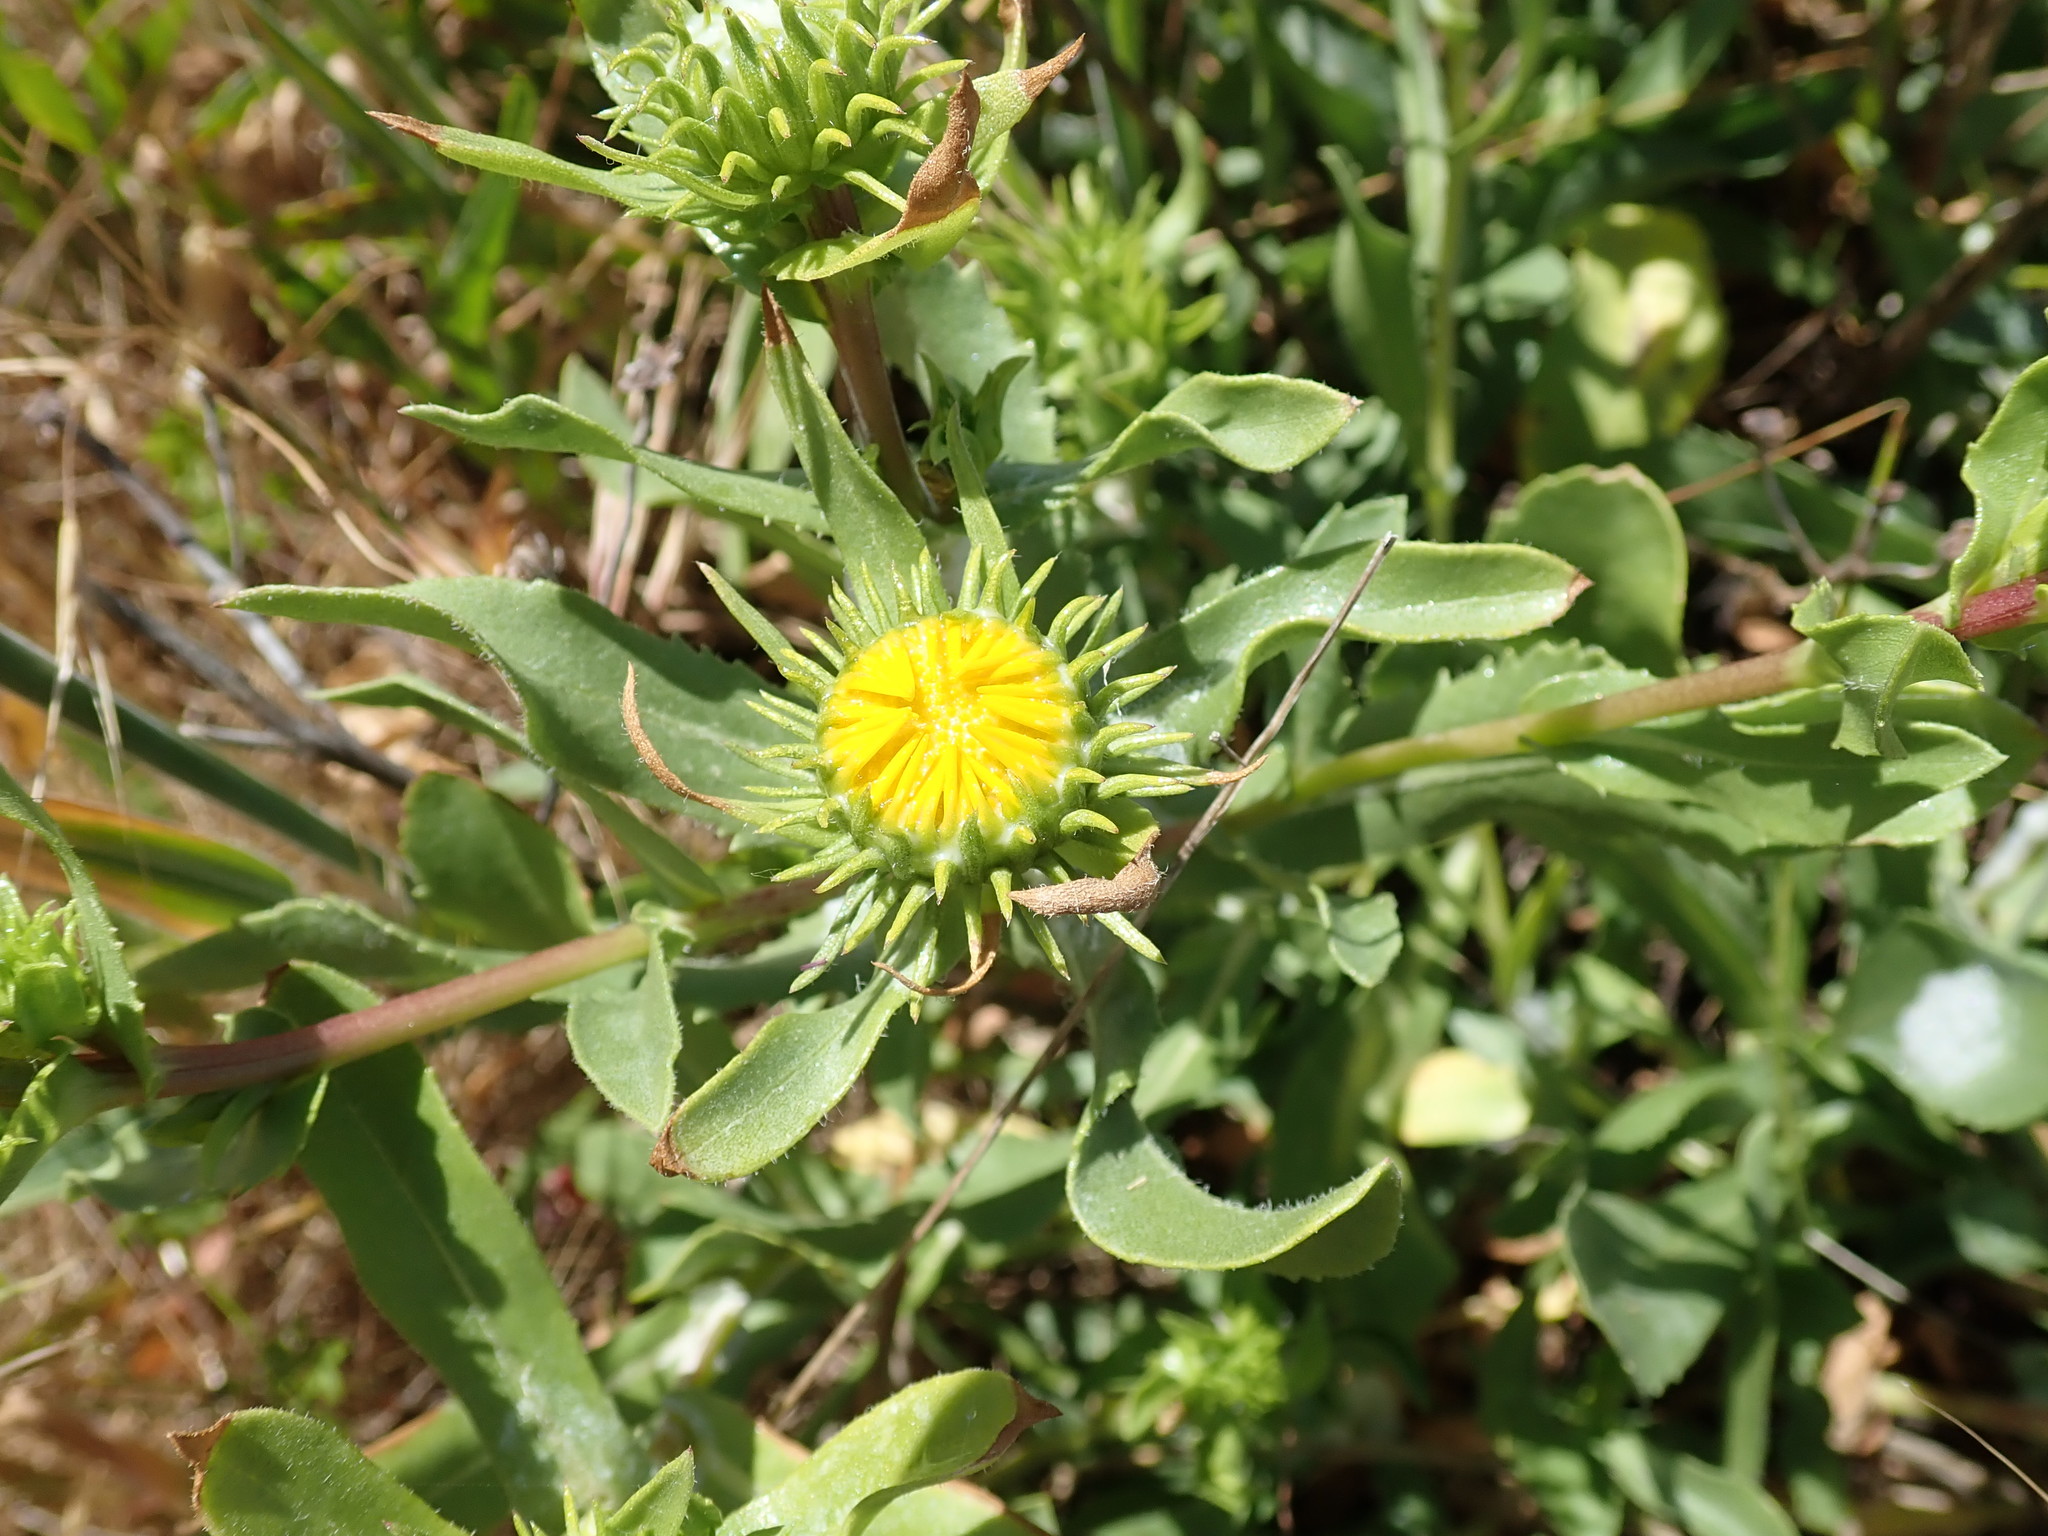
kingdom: Plantae
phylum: Tracheophyta
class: Magnoliopsida
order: Asterales
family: Asteraceae
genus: Grindelia
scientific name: Grindelia
